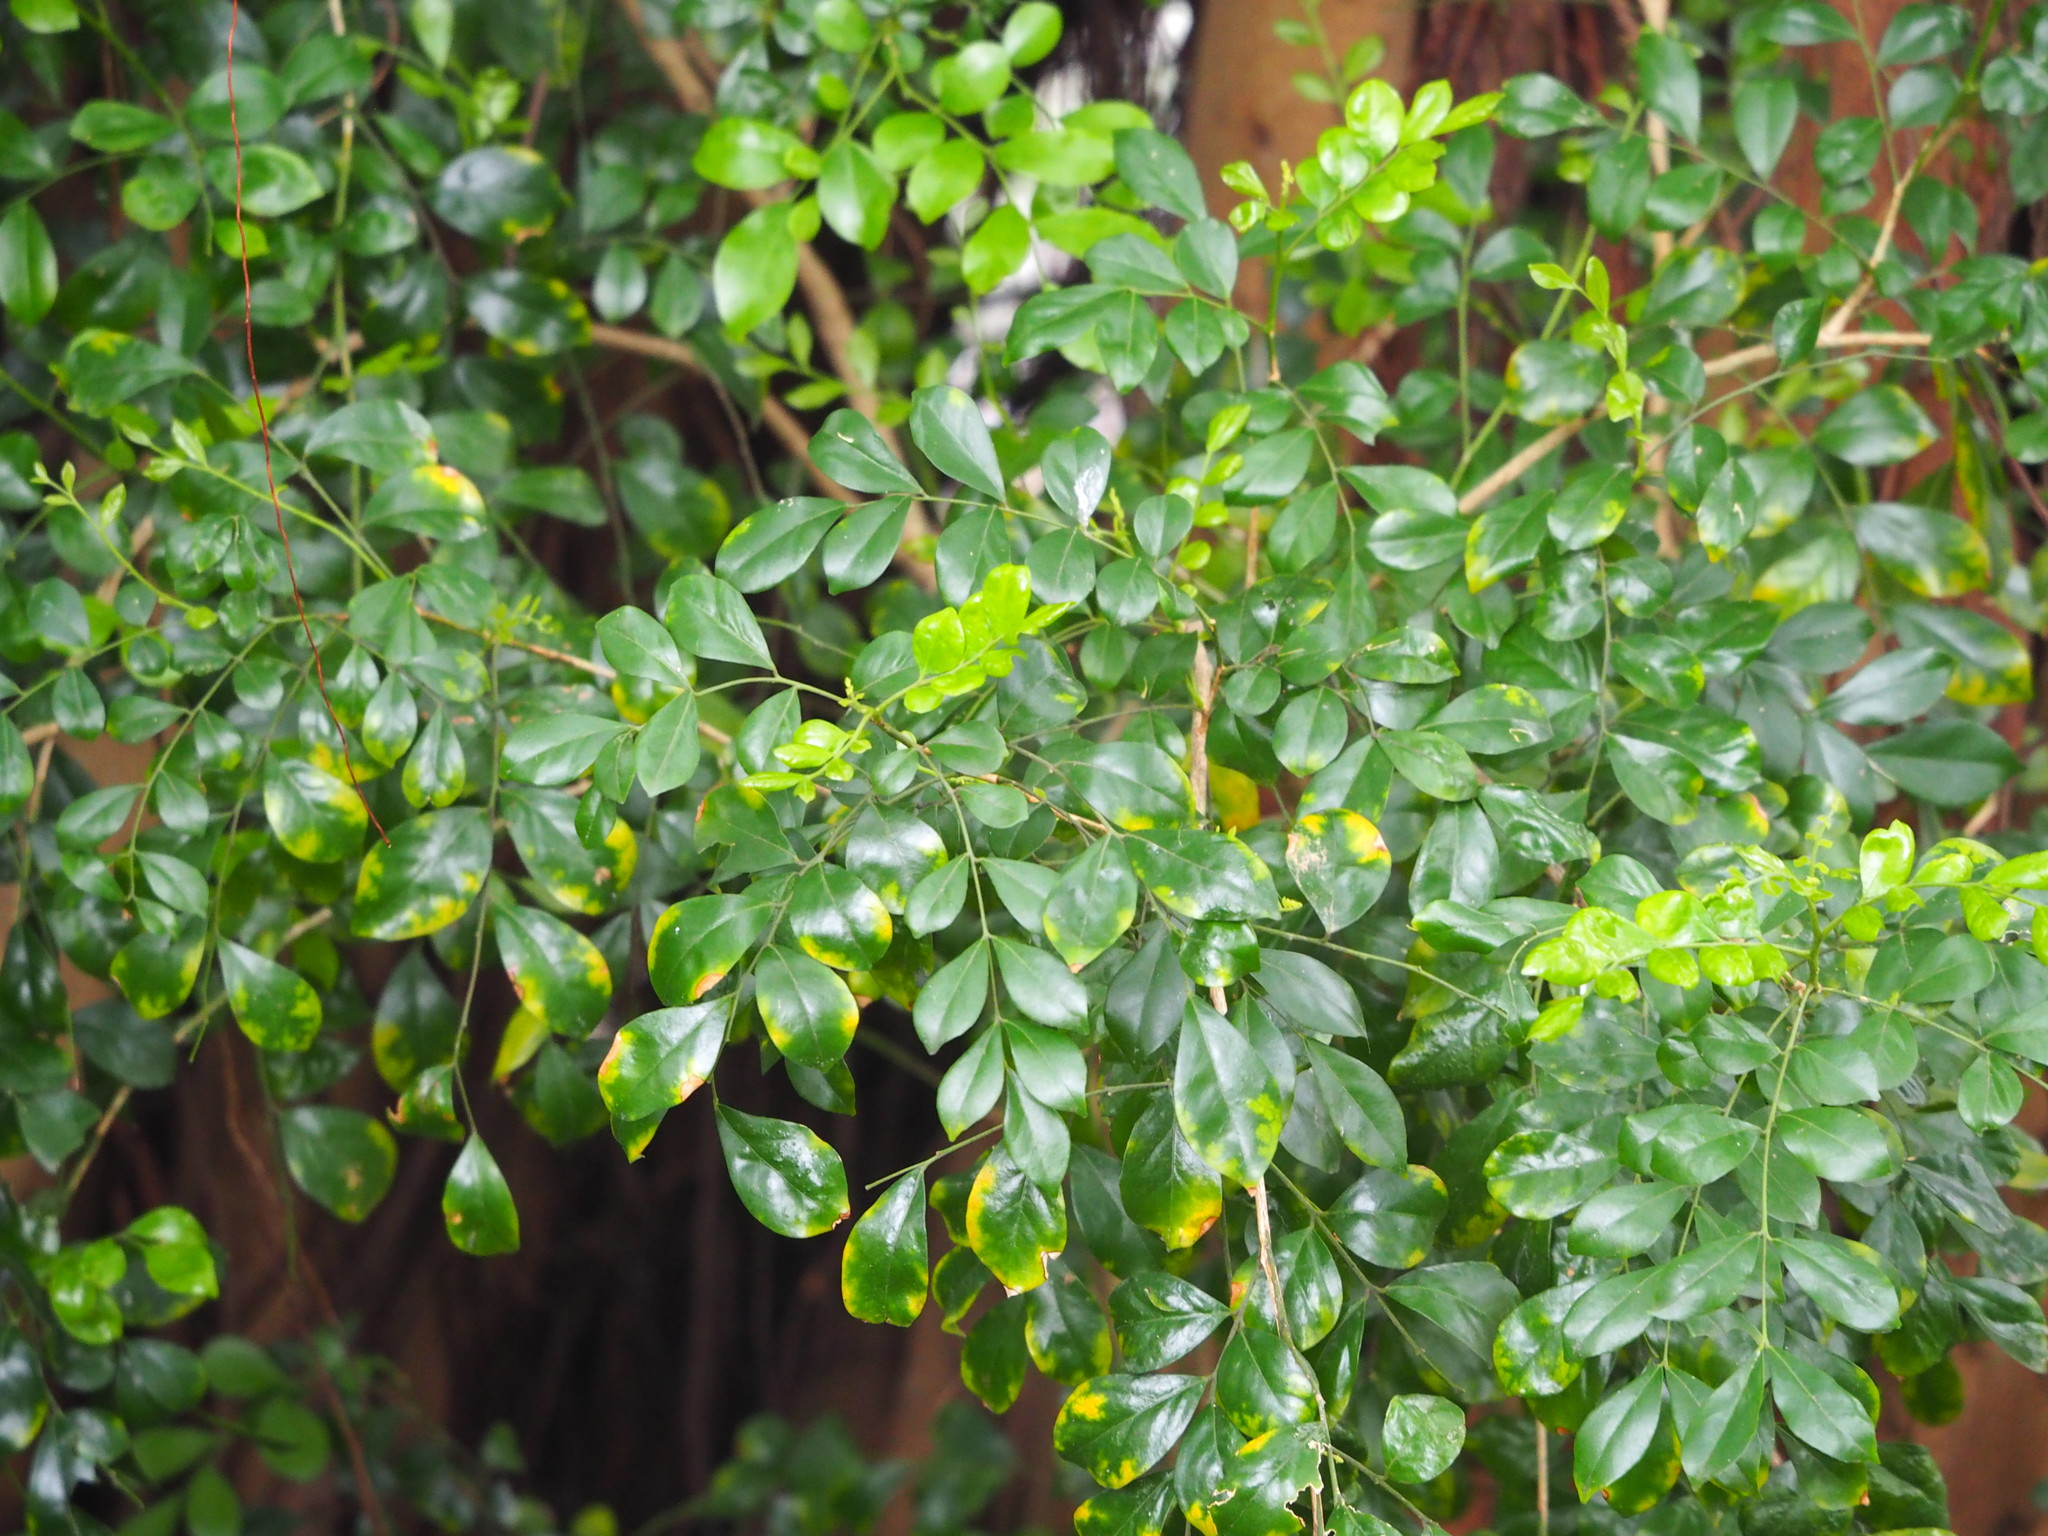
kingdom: Plantae
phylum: Tracheophyta
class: Magnoliopsida
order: Sapindales
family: Rutaceae
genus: Murraya
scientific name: Murraya paniculata
